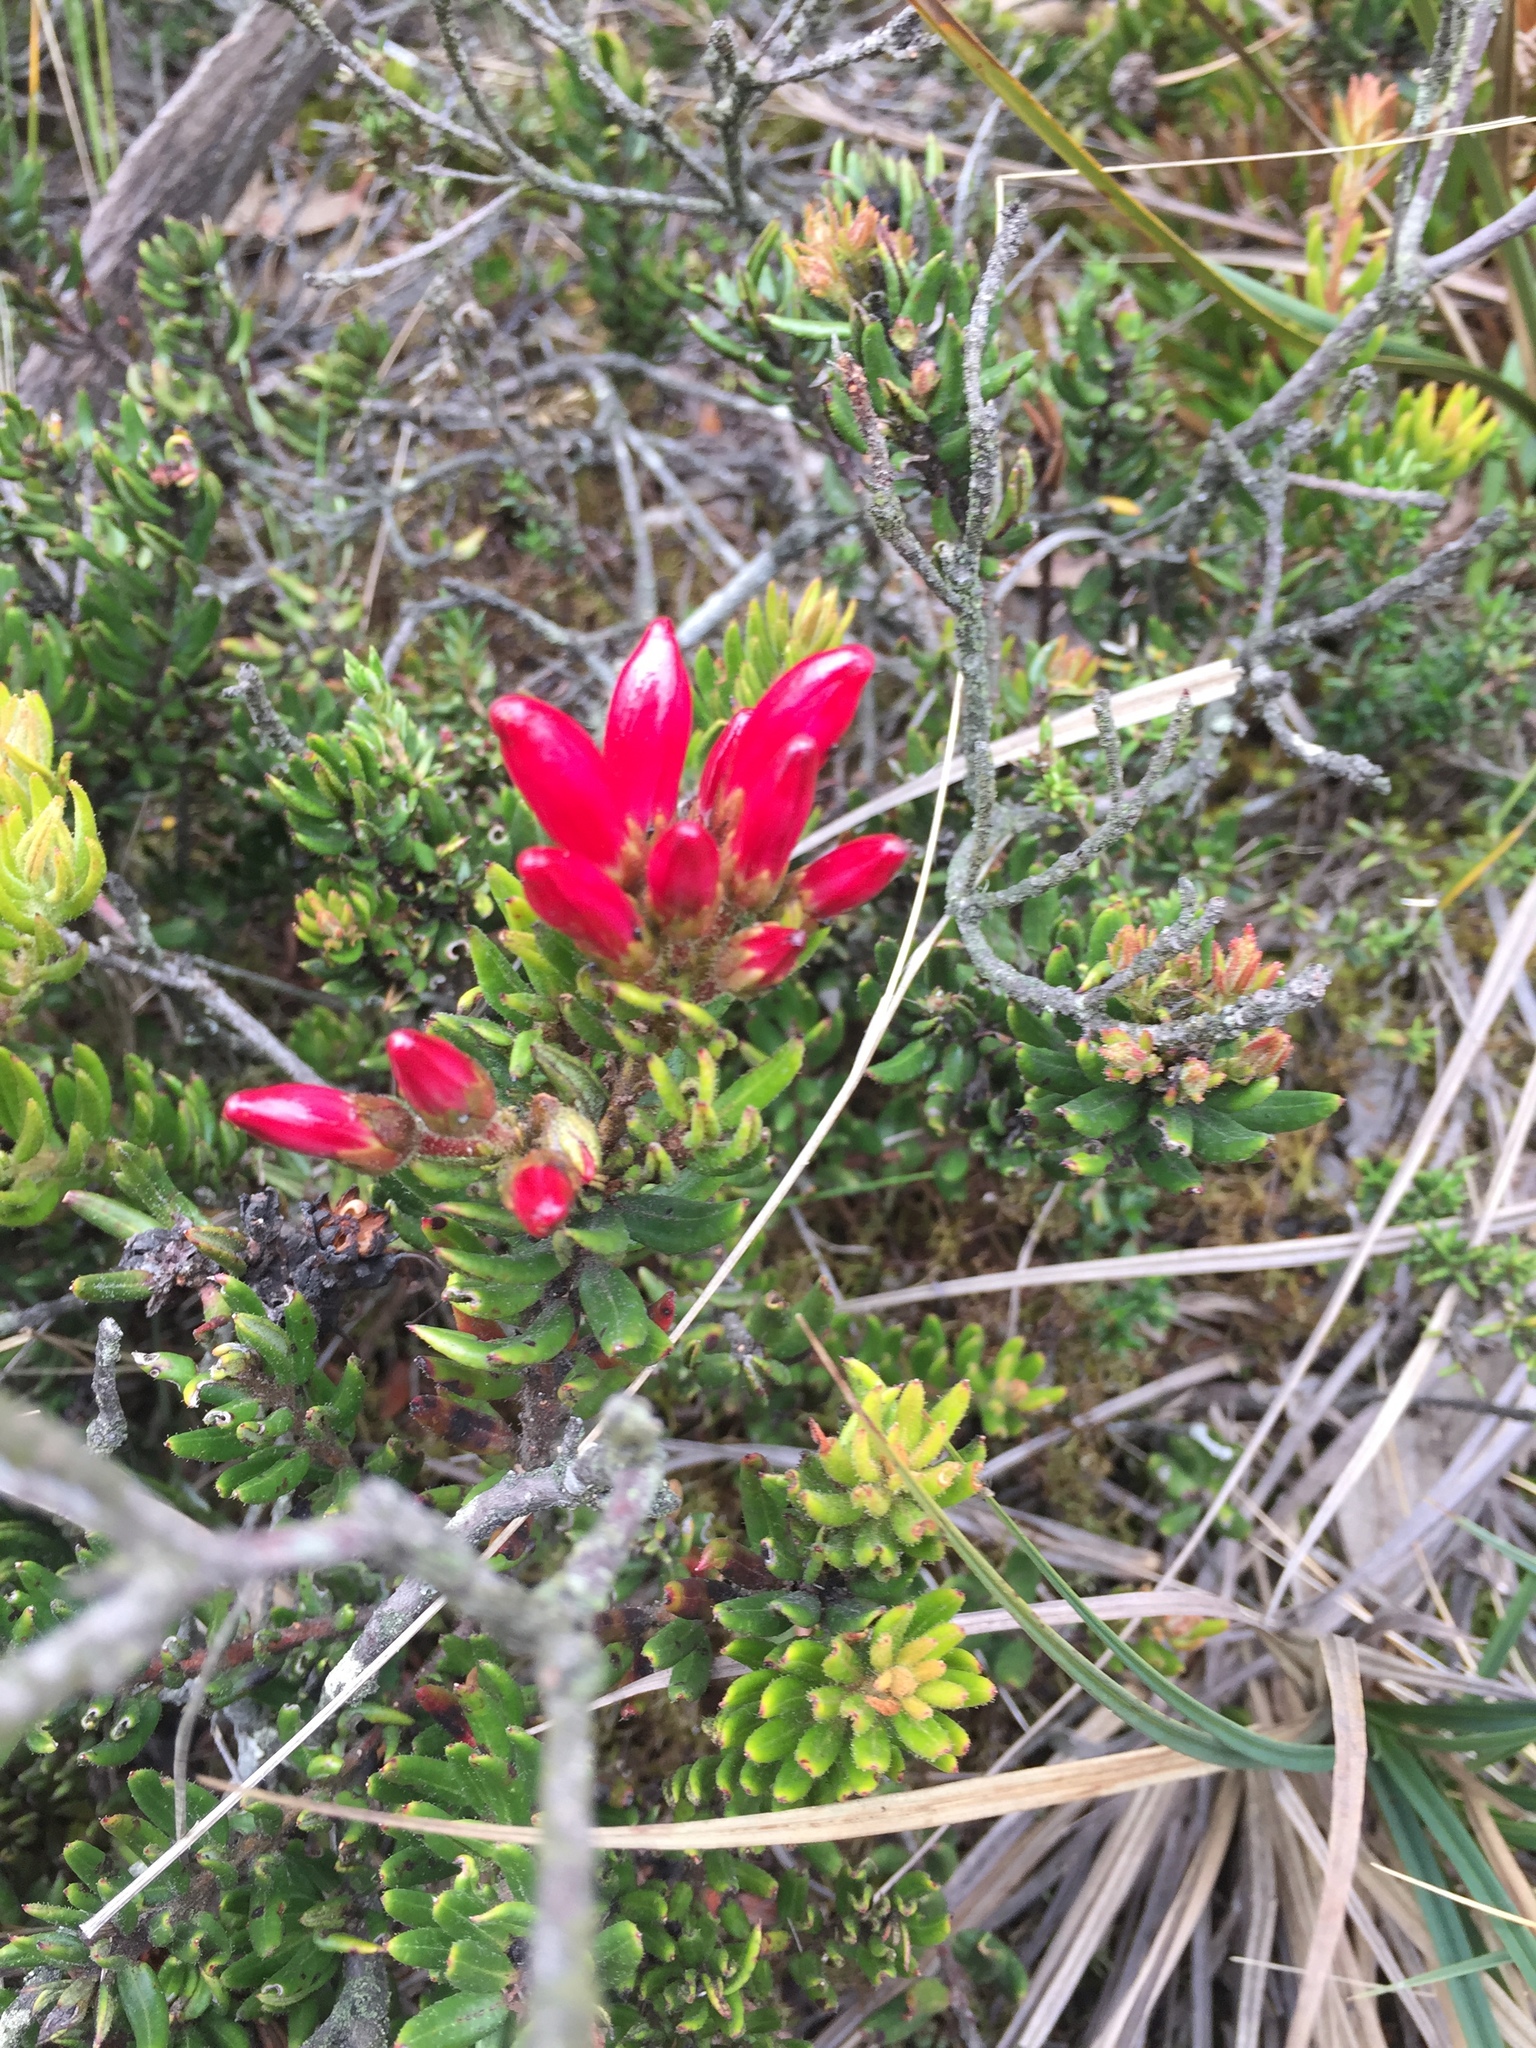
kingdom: Plantae
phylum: Tracheophyta
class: Magnoliopsida
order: Ericales
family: Ericaceae
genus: Bejaria
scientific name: Bejaria resinosa
